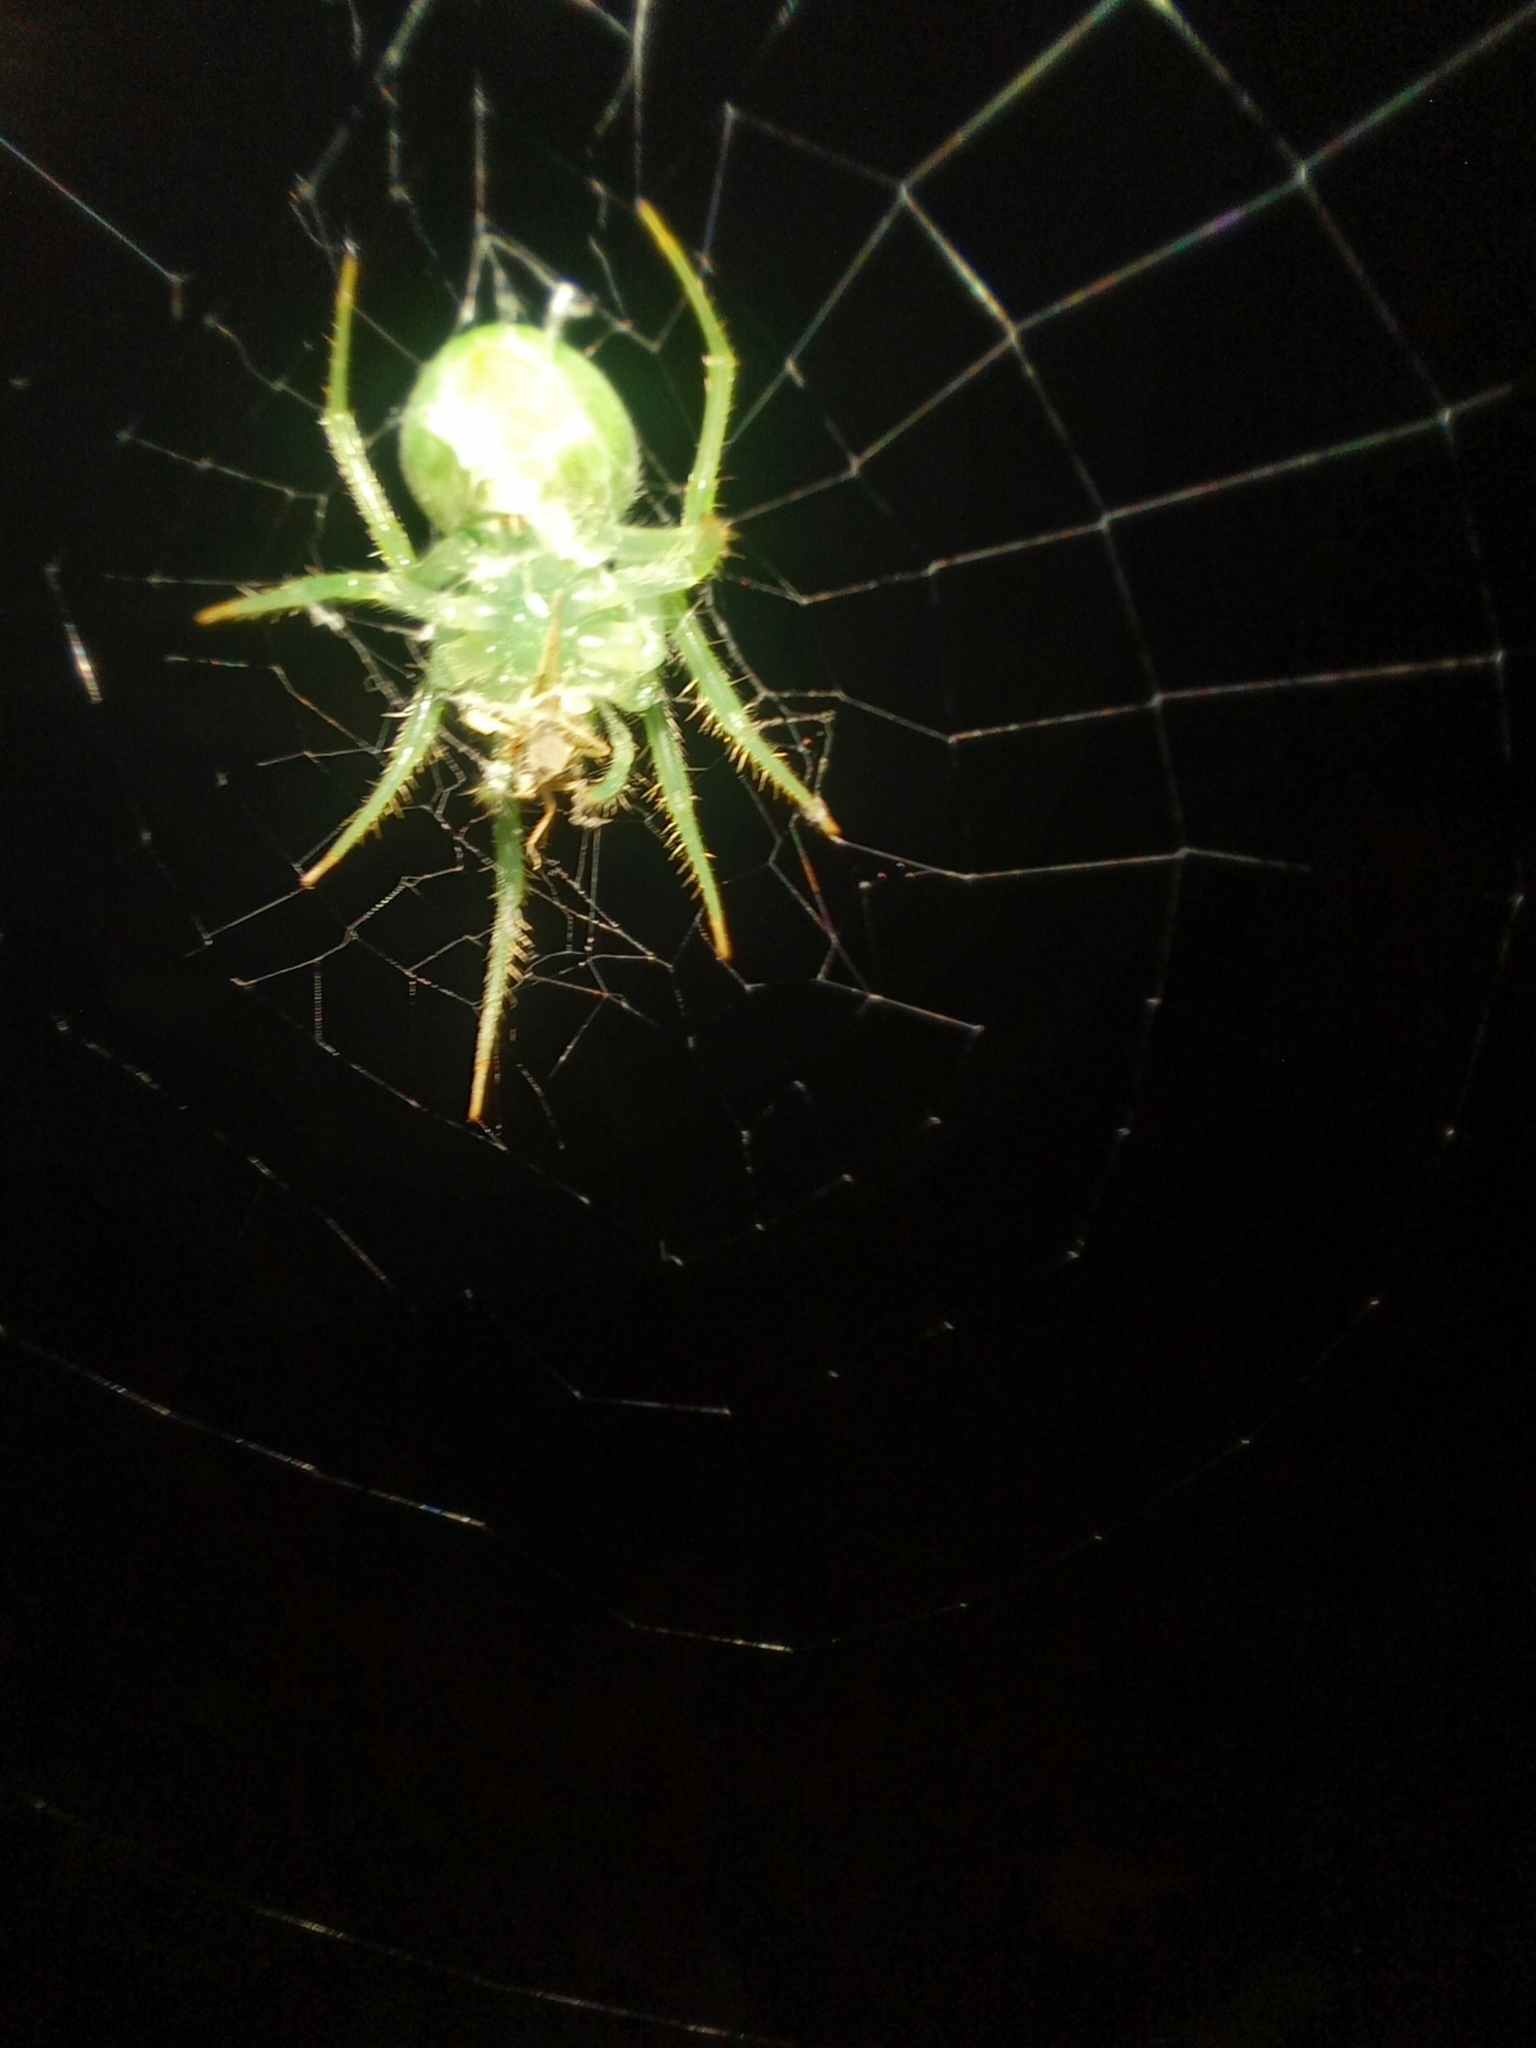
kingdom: Animalia
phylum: Arthropoda
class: Arachnida
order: Araneae
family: Araneidae
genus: Araneus
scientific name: Araneus uniformis
